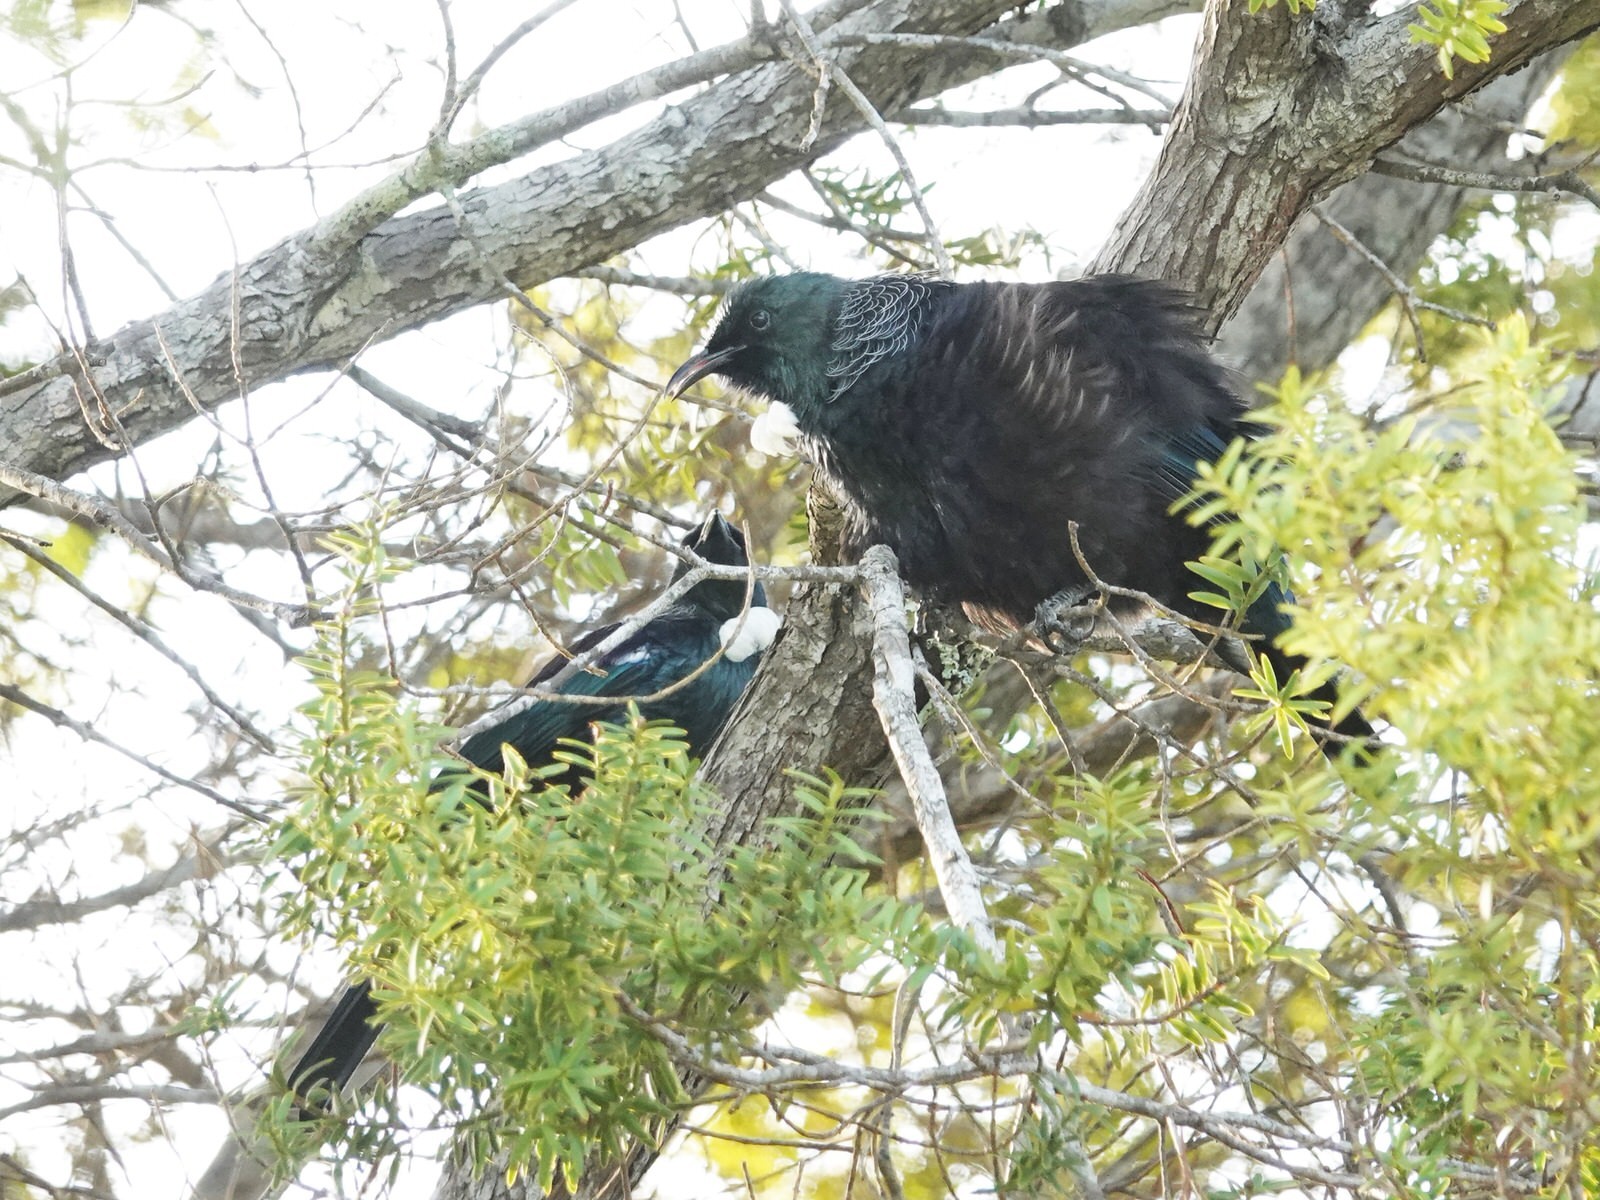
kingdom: Animalia
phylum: Chordata
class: Aves
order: Passeriformes
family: Meliphagidae
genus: Prosthemadera
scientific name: Prosthemadera novaeseelandiae
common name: Tui
